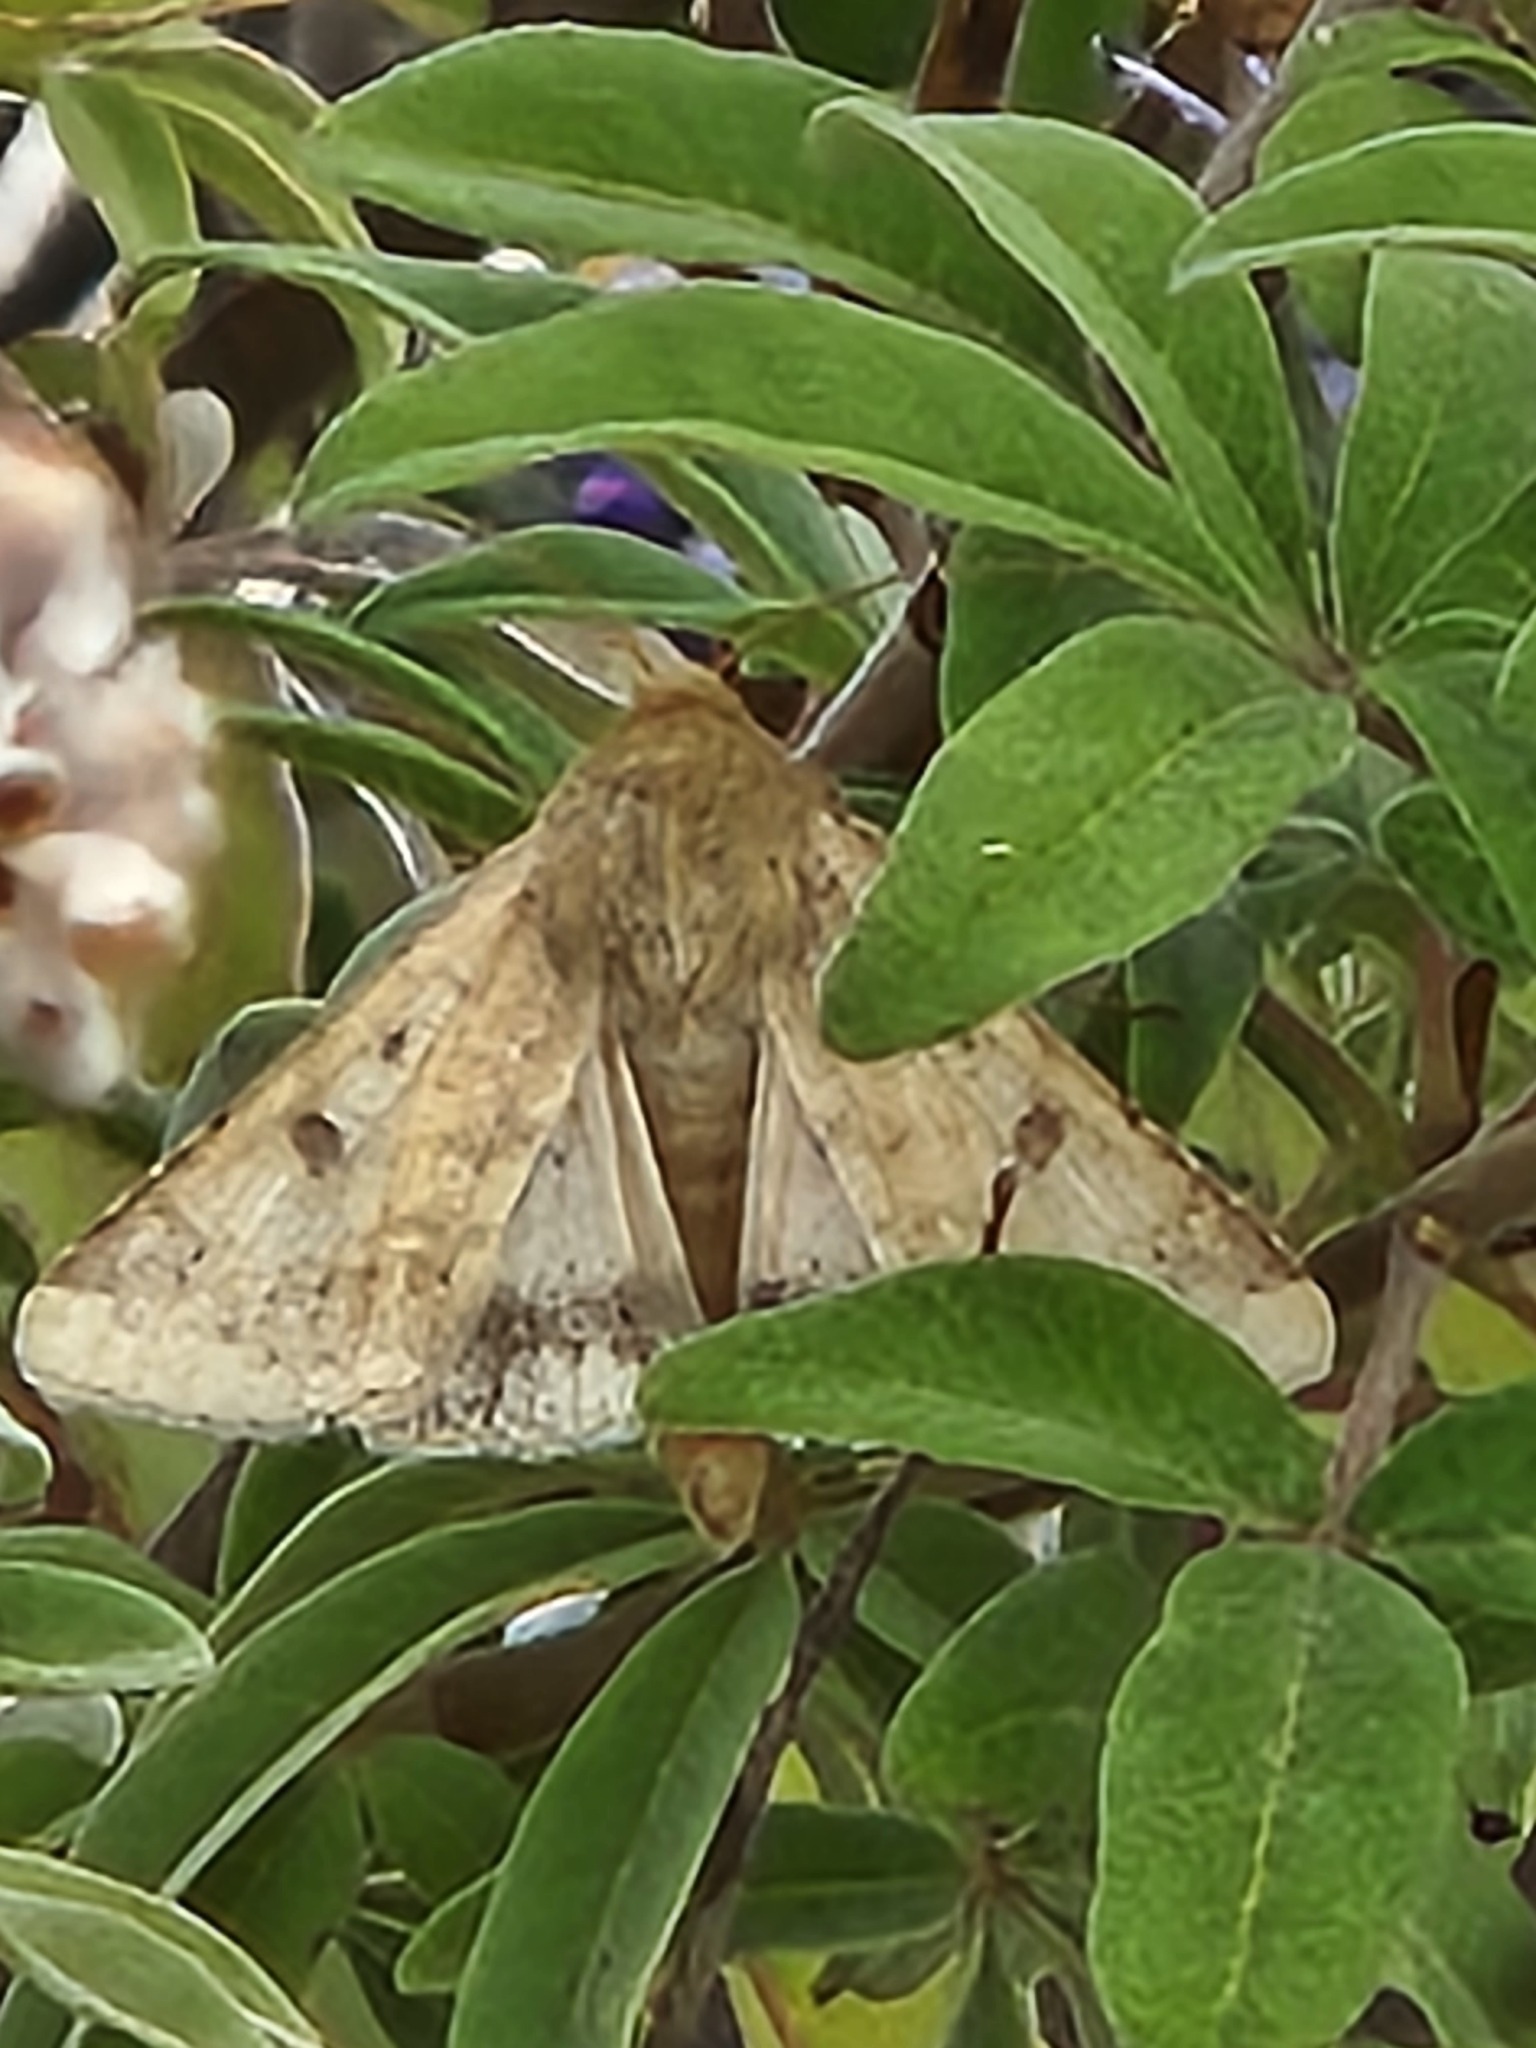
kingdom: Animalia
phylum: Arthropoda
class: Insecta
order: Lepidoptera
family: Noctuidae
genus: Helicoverpa
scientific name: Helicoverpa zea
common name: Bollworm
